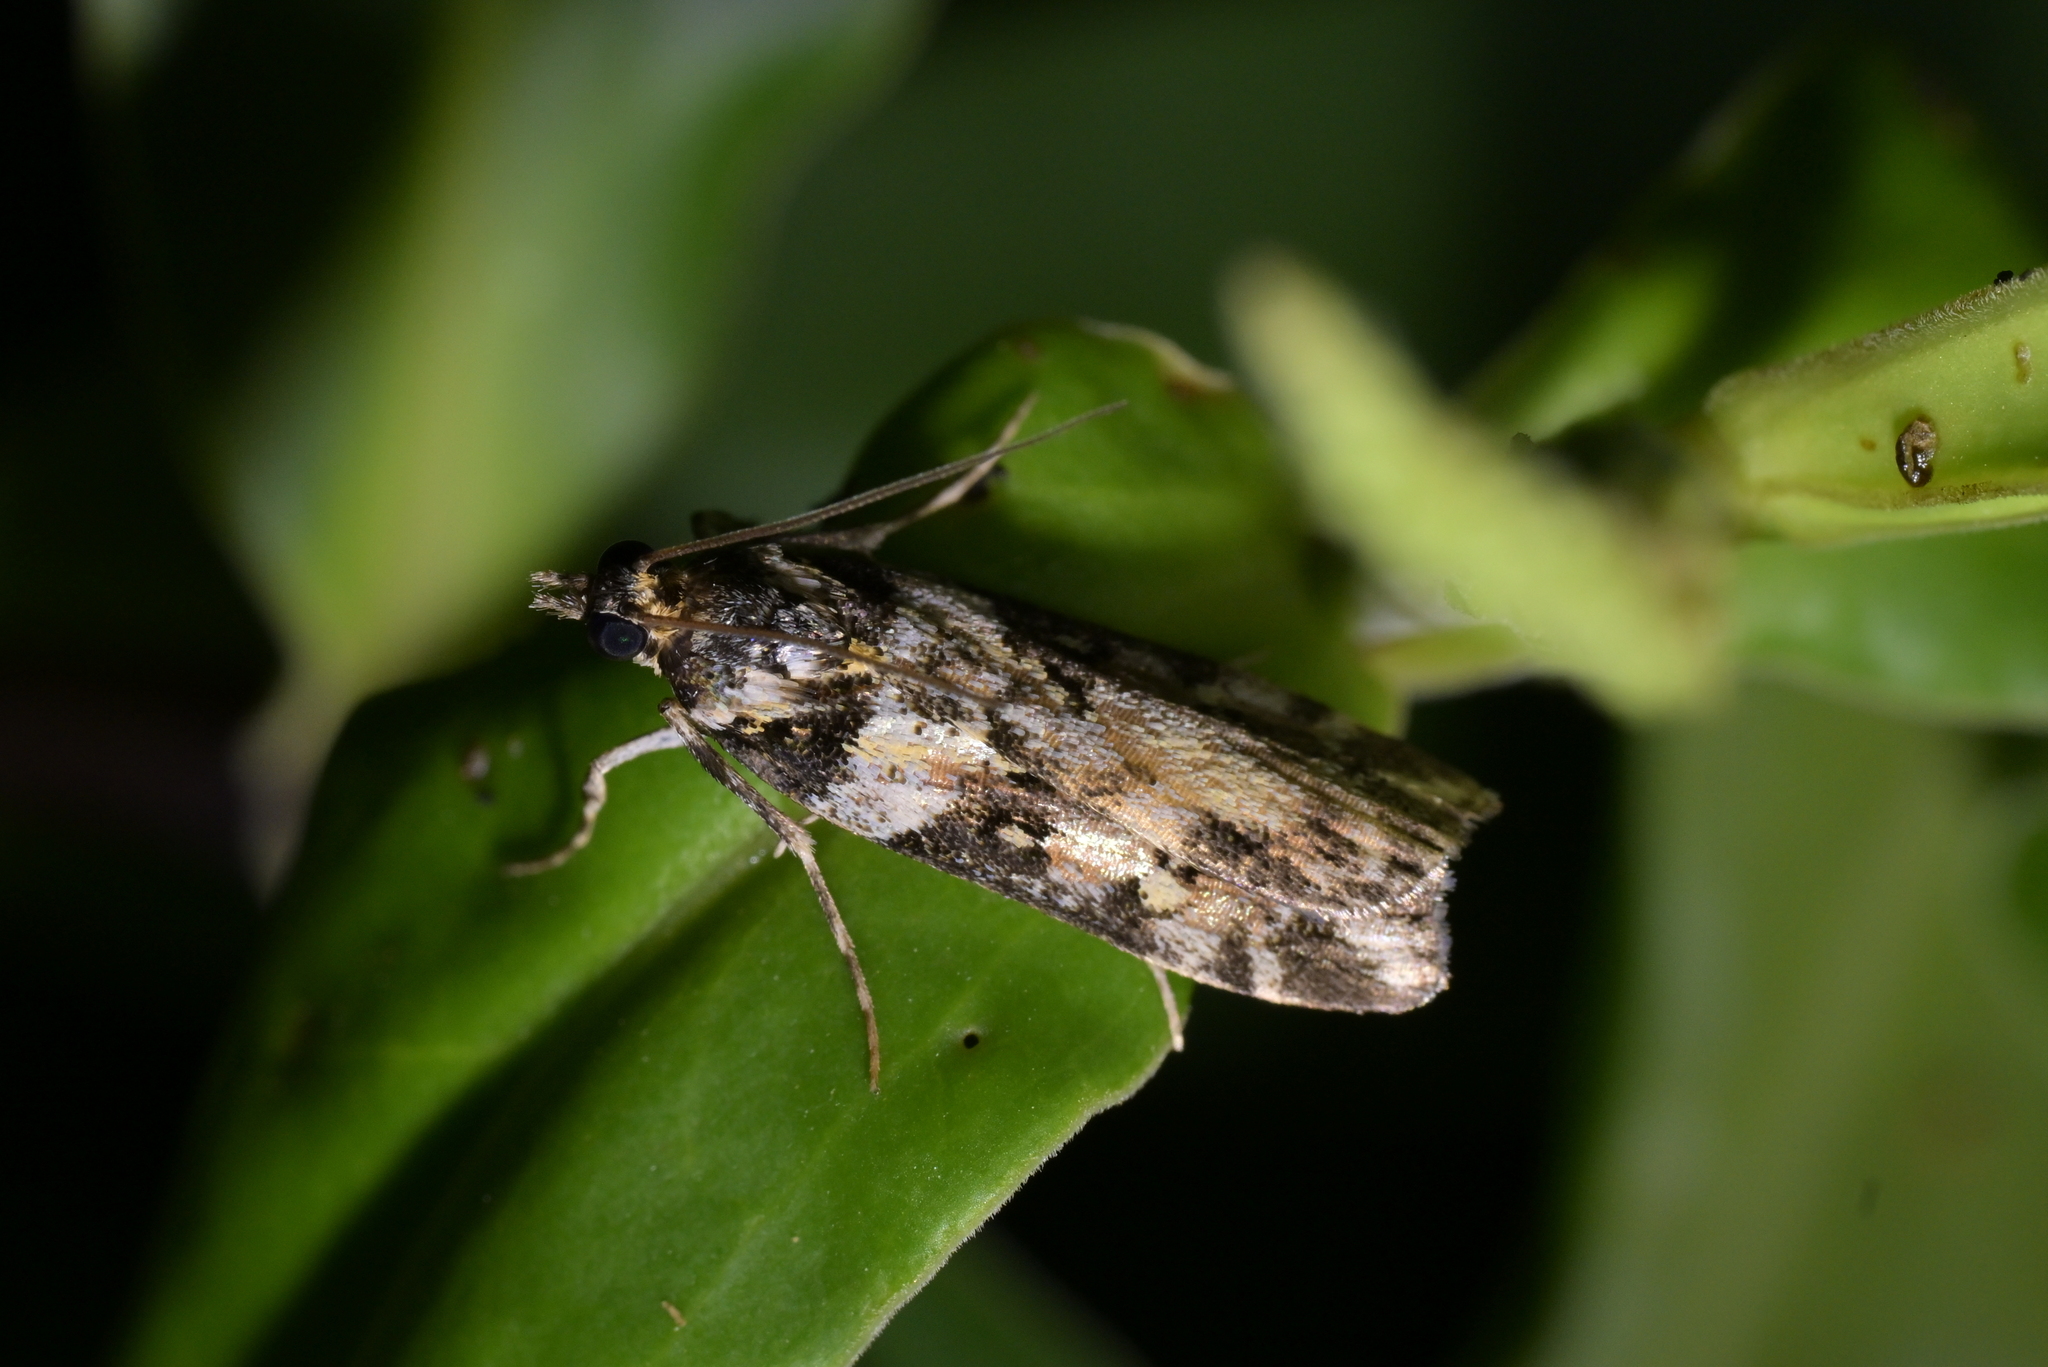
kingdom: Animalia
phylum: Arthropoda
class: Insecta
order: Lepidoptera
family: Crambidae
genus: Eudonia
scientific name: Eudonia diphtheralis
